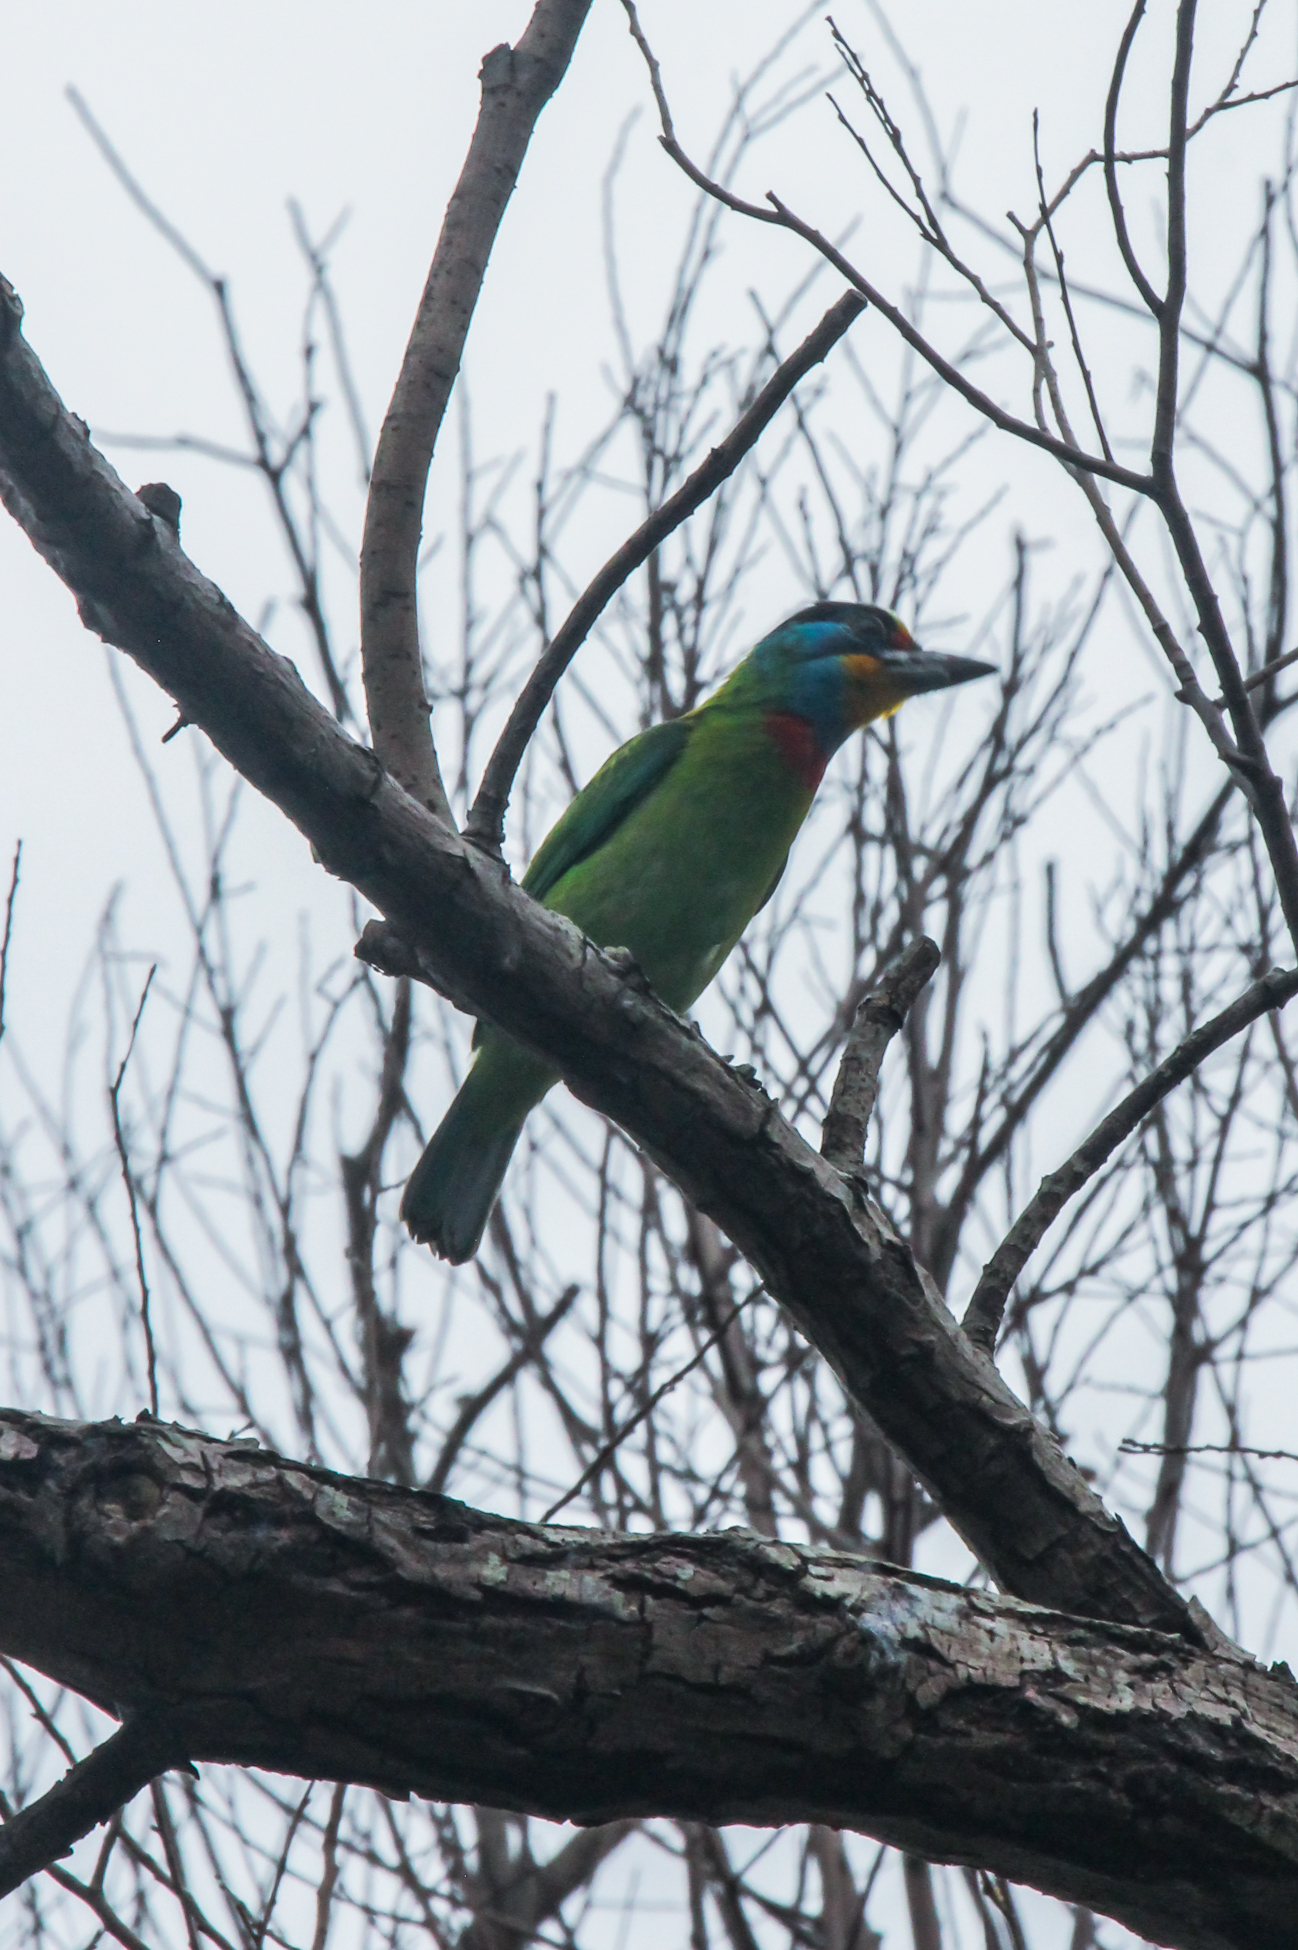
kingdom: Animalia
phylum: Chordata
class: Aves
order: Piciformes
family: Megalaimidae
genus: Psilopogon
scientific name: Psilopogon nuchalis
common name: Taiwan barbet
